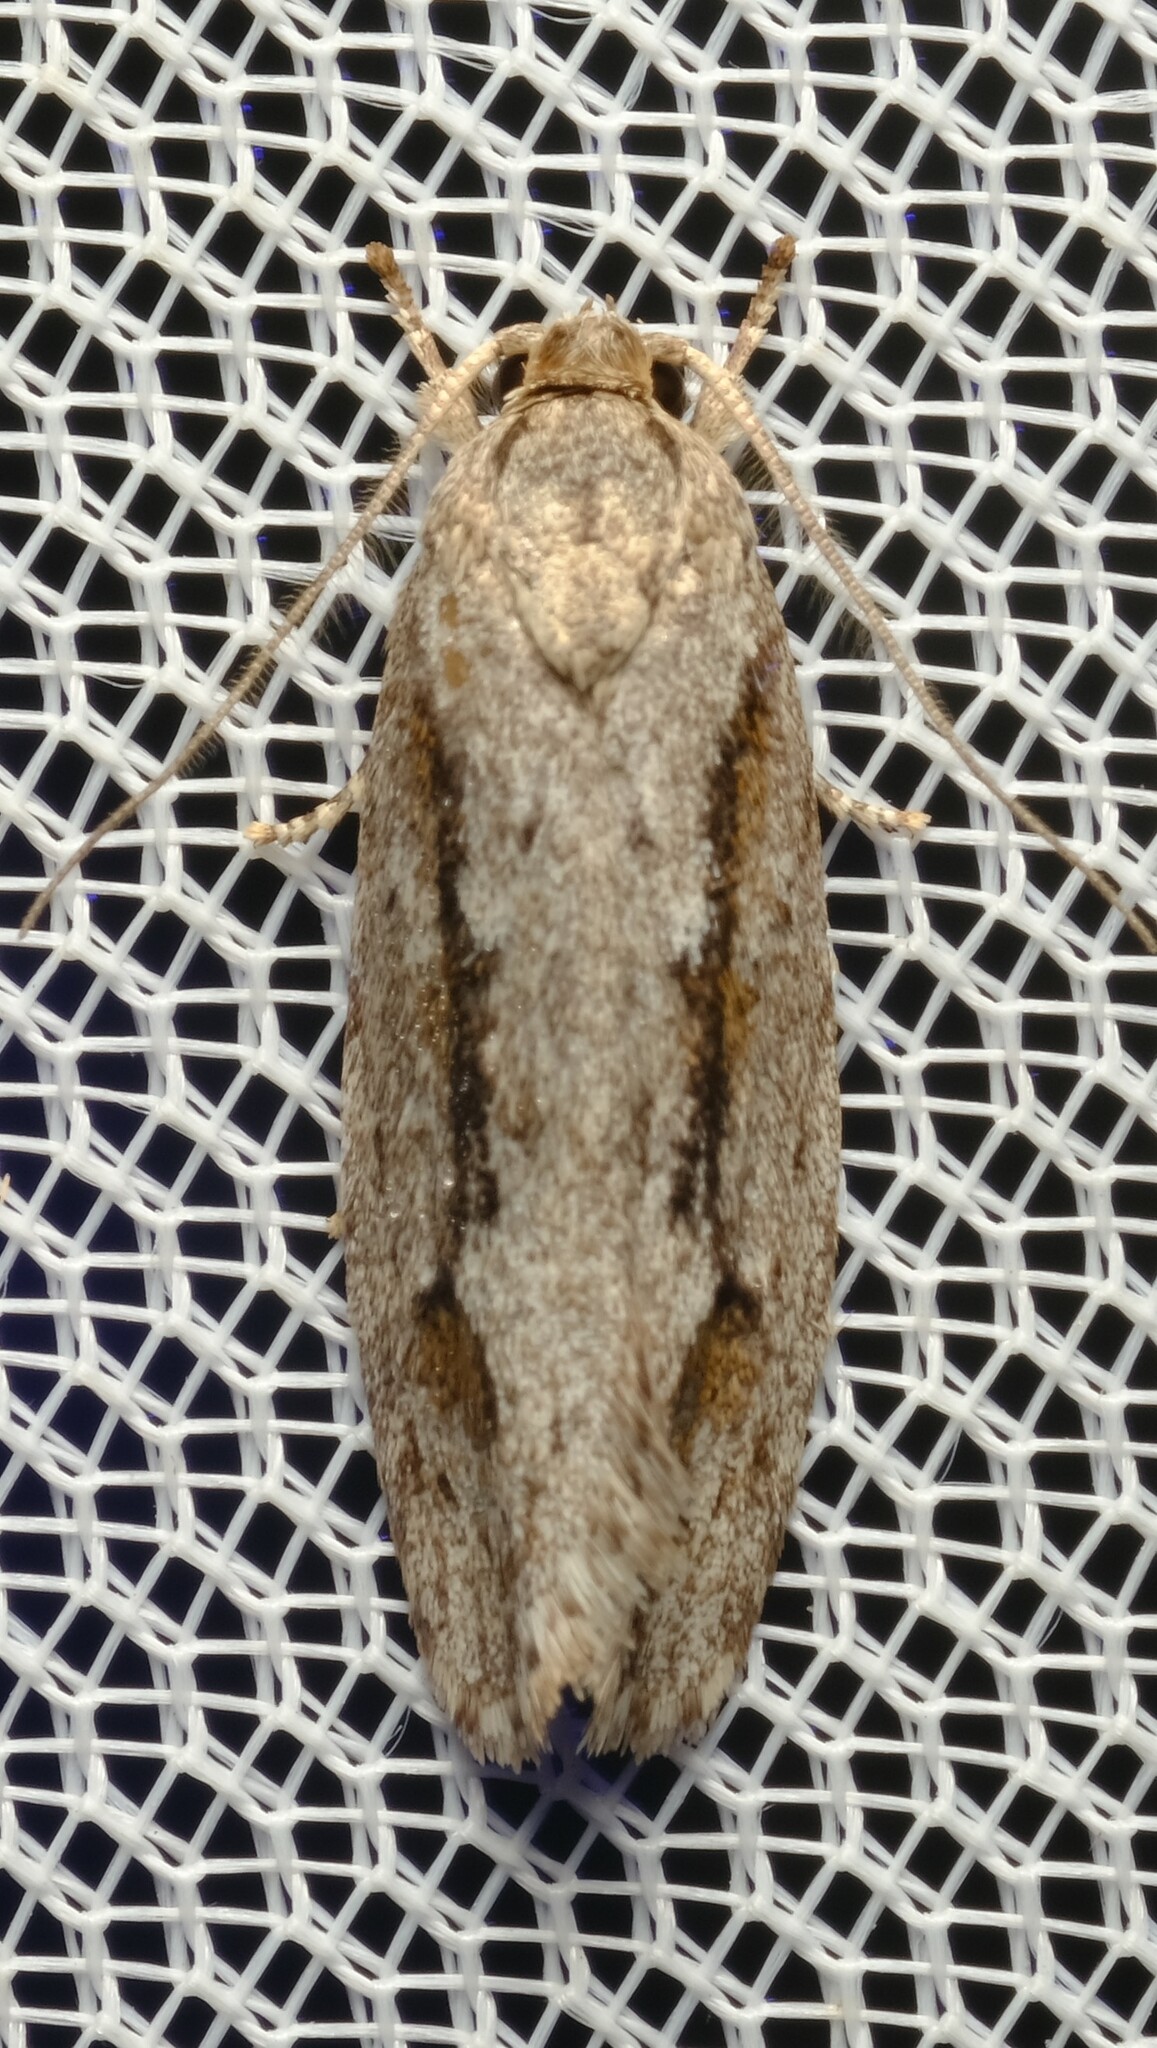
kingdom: Animalia
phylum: Arthropoda
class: Insecta
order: Lepidoptera
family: Depressariidae
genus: Agriophara
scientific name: Agriophara discobola
